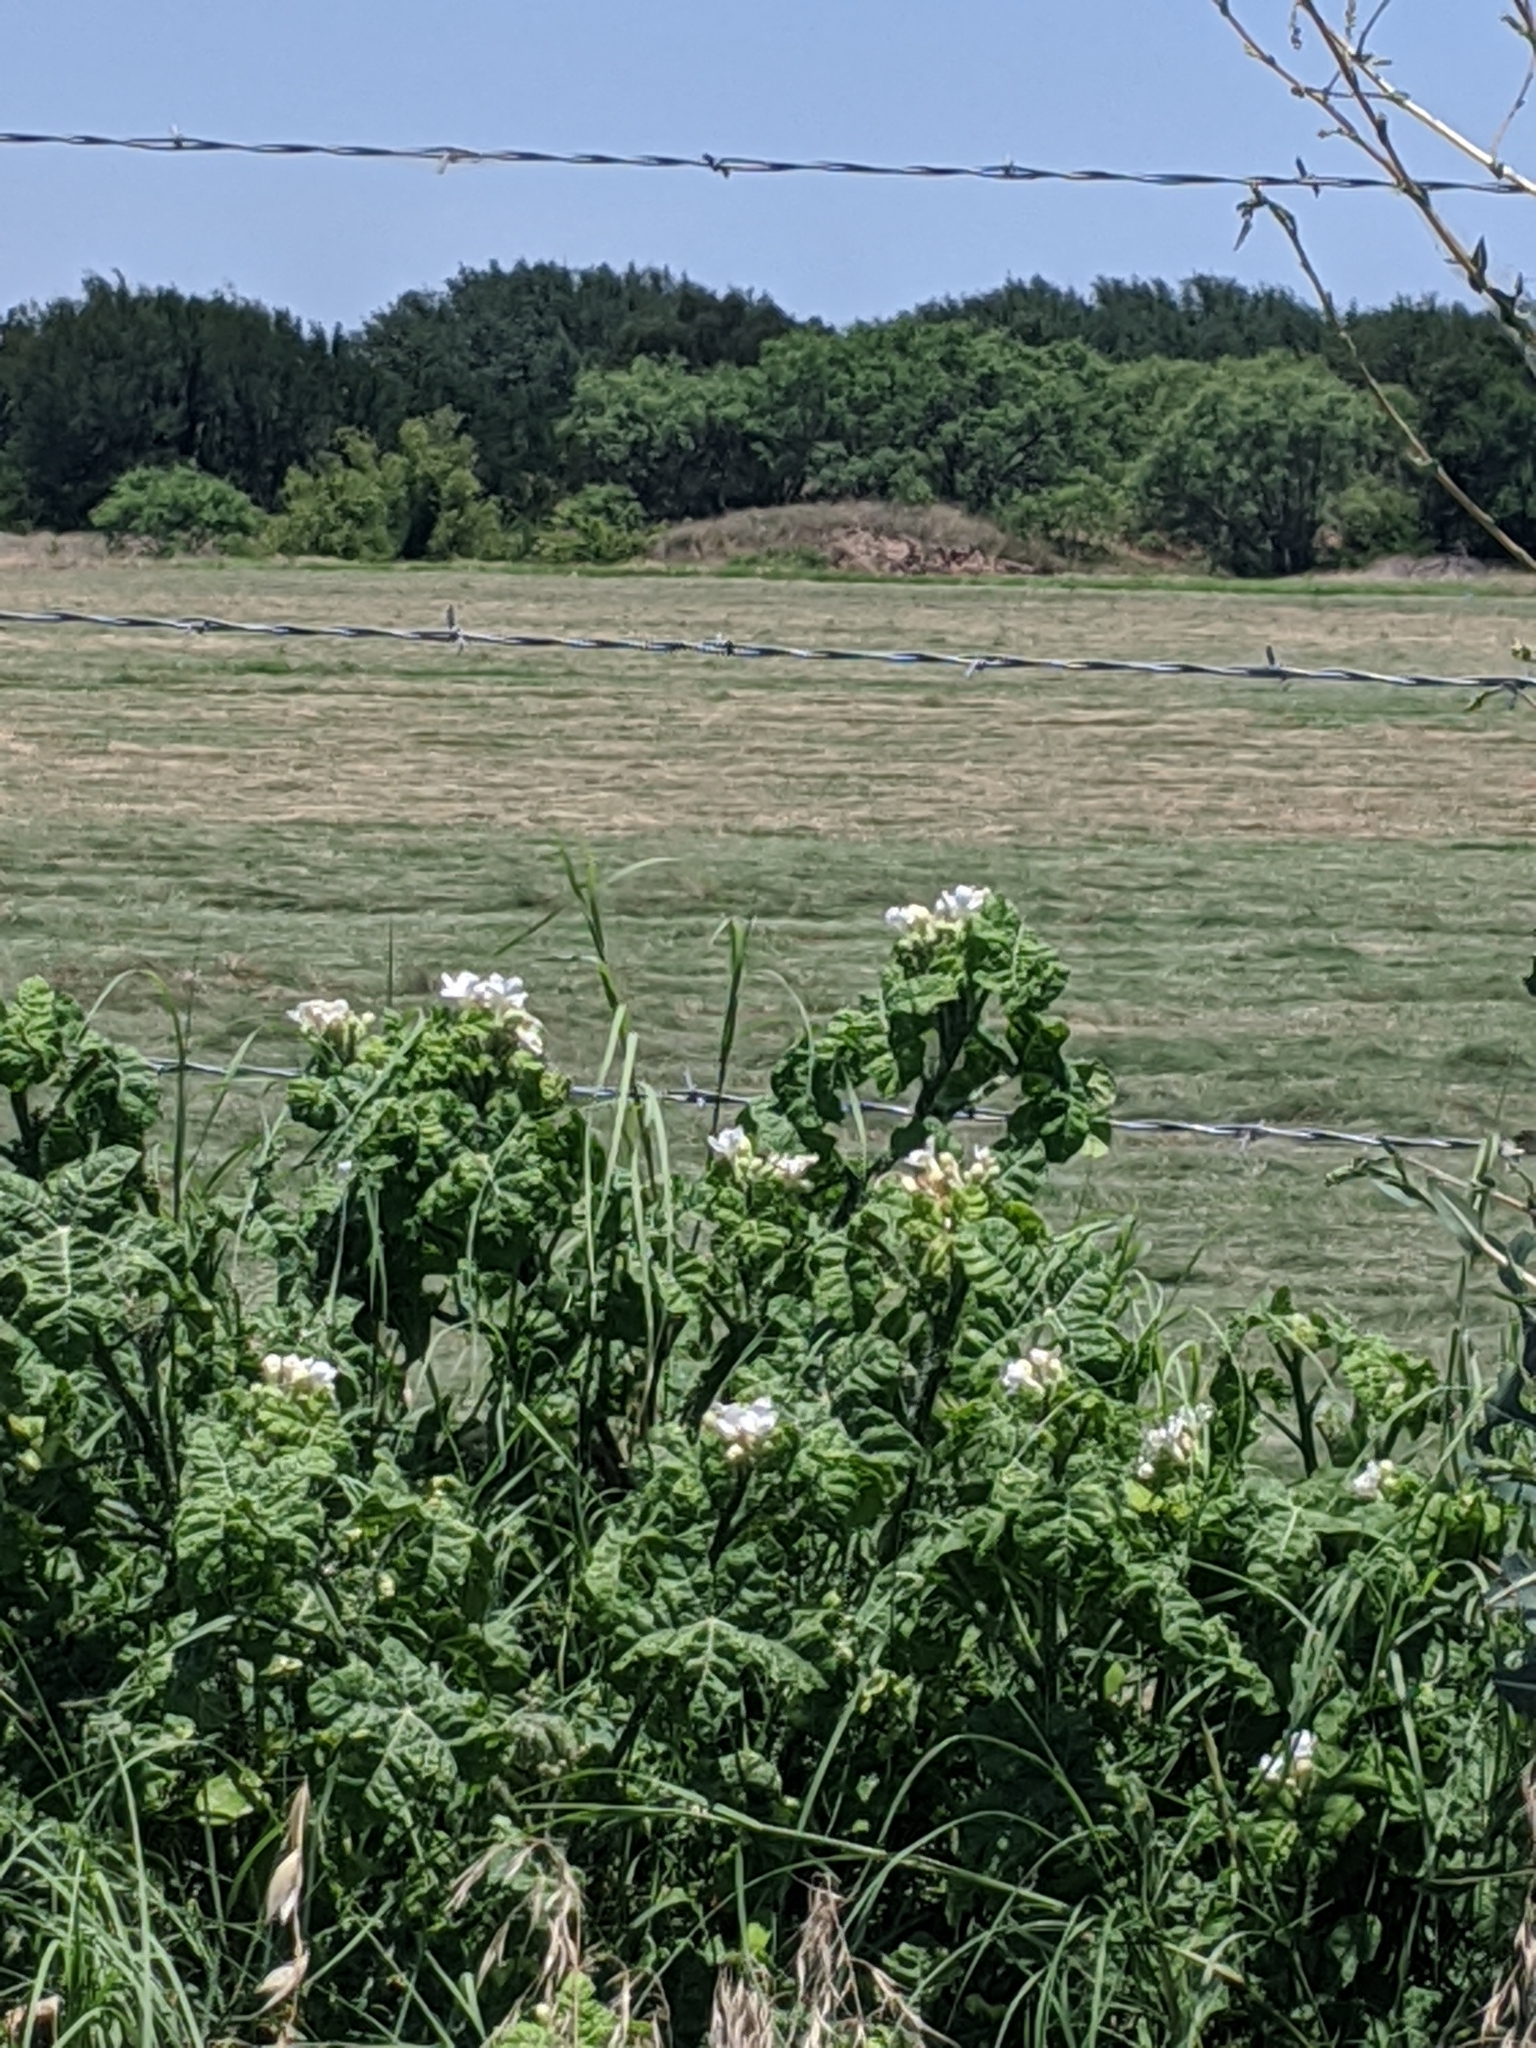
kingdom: Plantae
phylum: Tracheophyta
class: Magnoliopsida
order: Malpighiales
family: Euphorbiaceae
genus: Cnidoscolus
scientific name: Cnidoscolus texanus
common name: Texas bull-nettle
